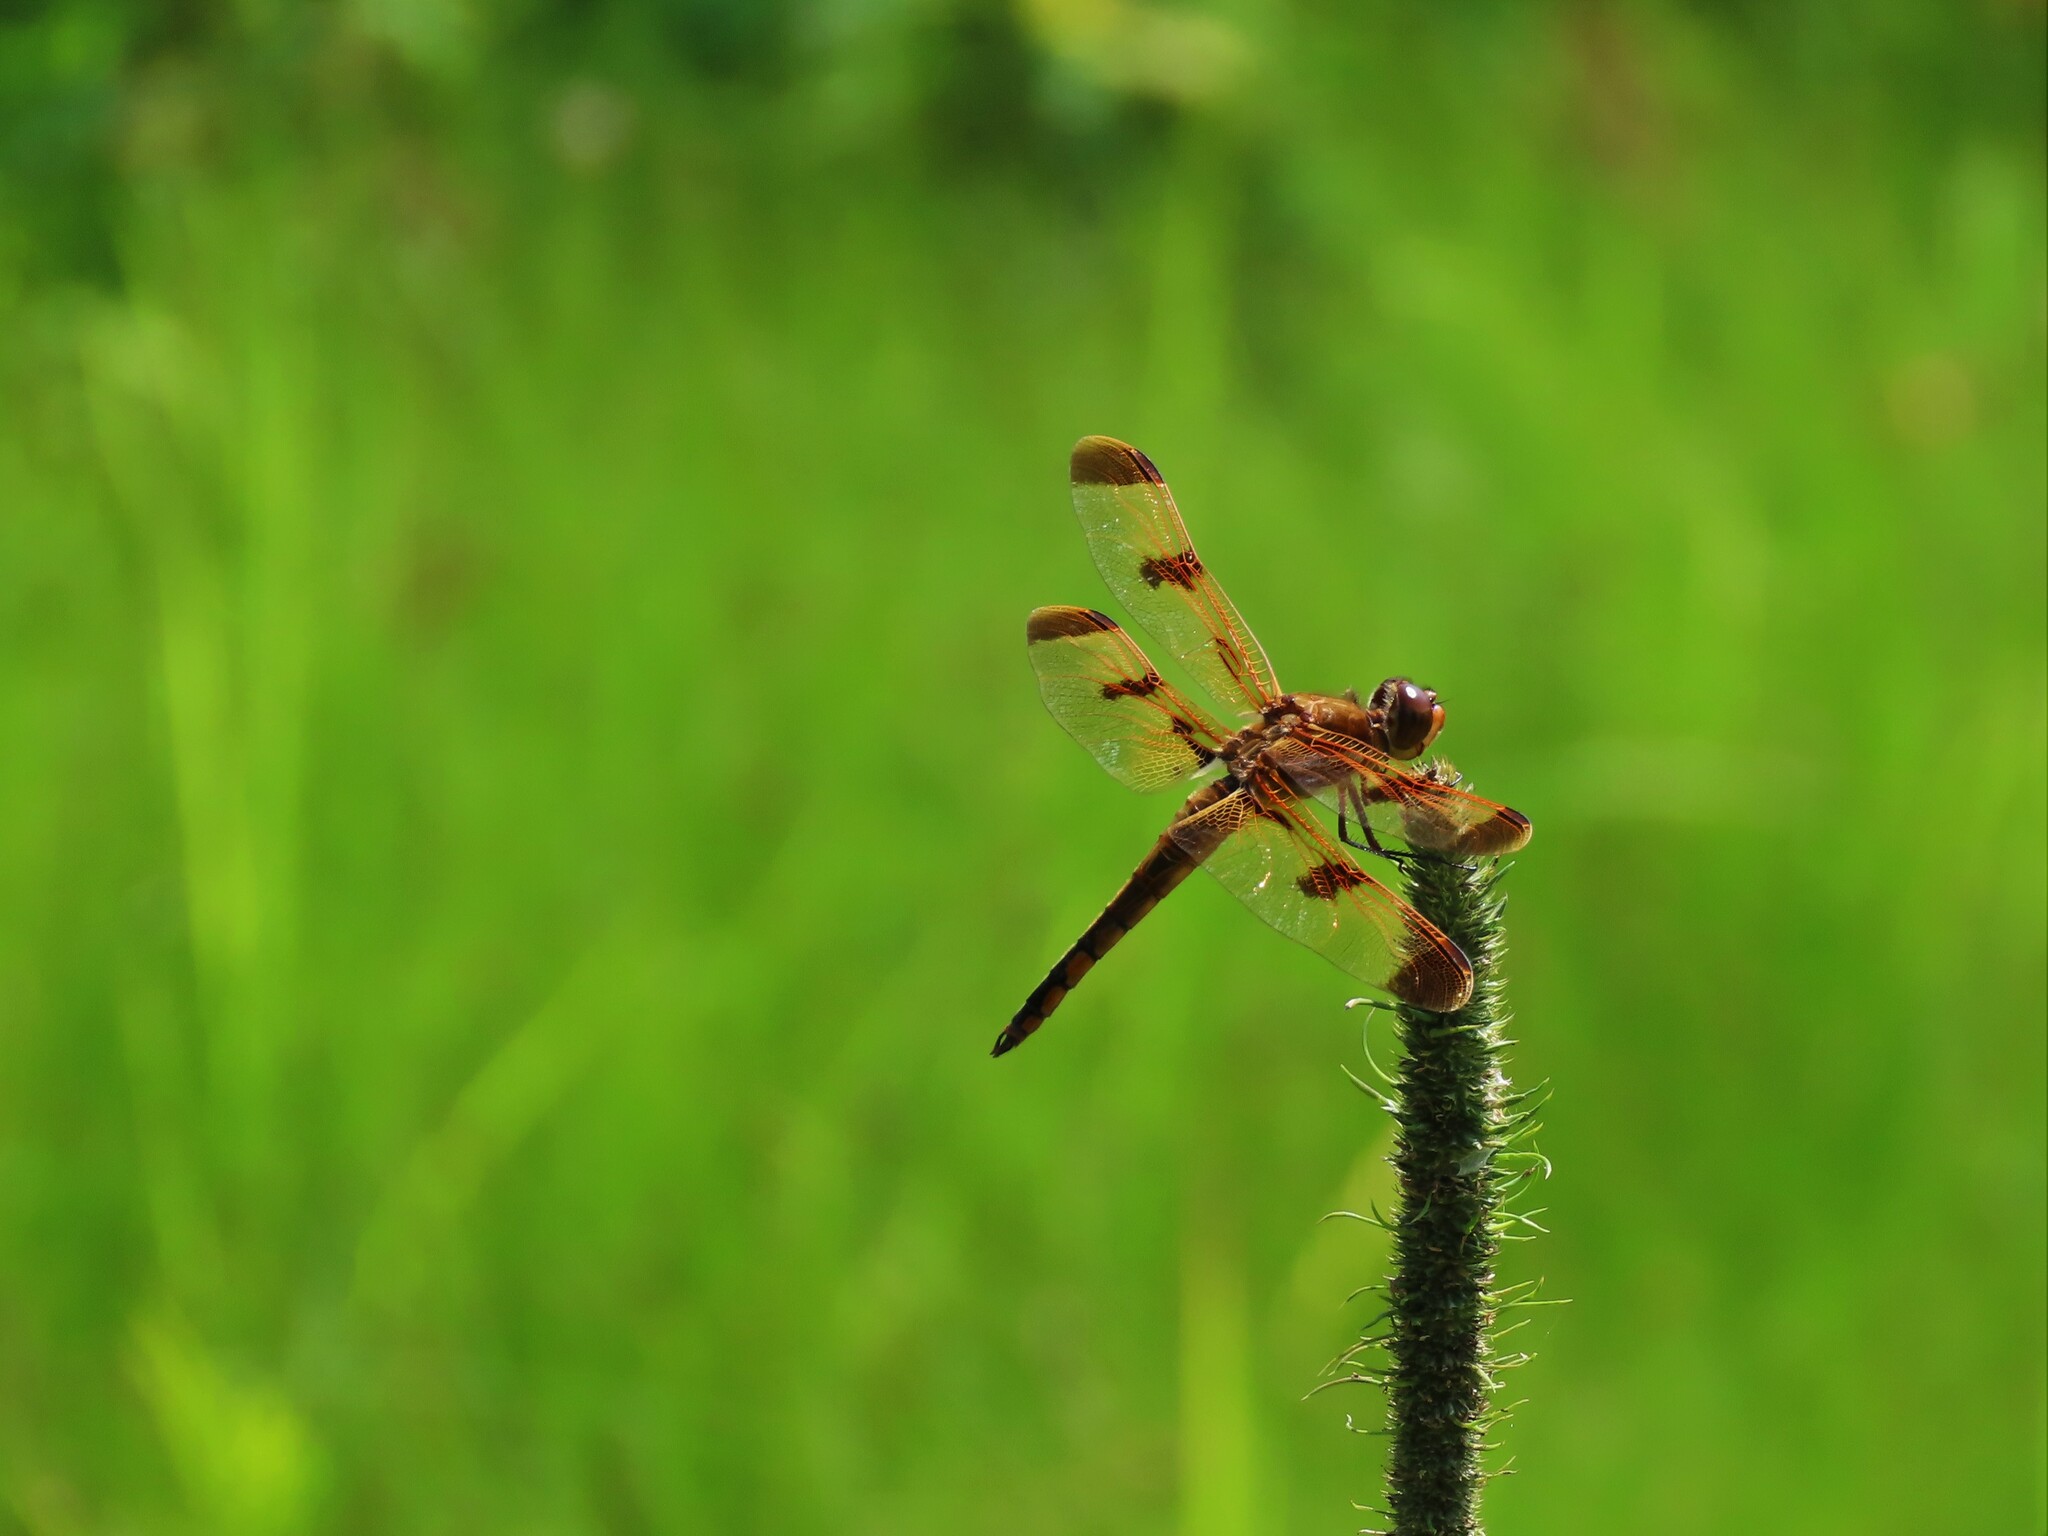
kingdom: Animalia
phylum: Arthropoda
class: Insecta
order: Odonata
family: Libellulidae
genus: Libellula
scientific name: Libellula semifasciata
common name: Painted skimmer
